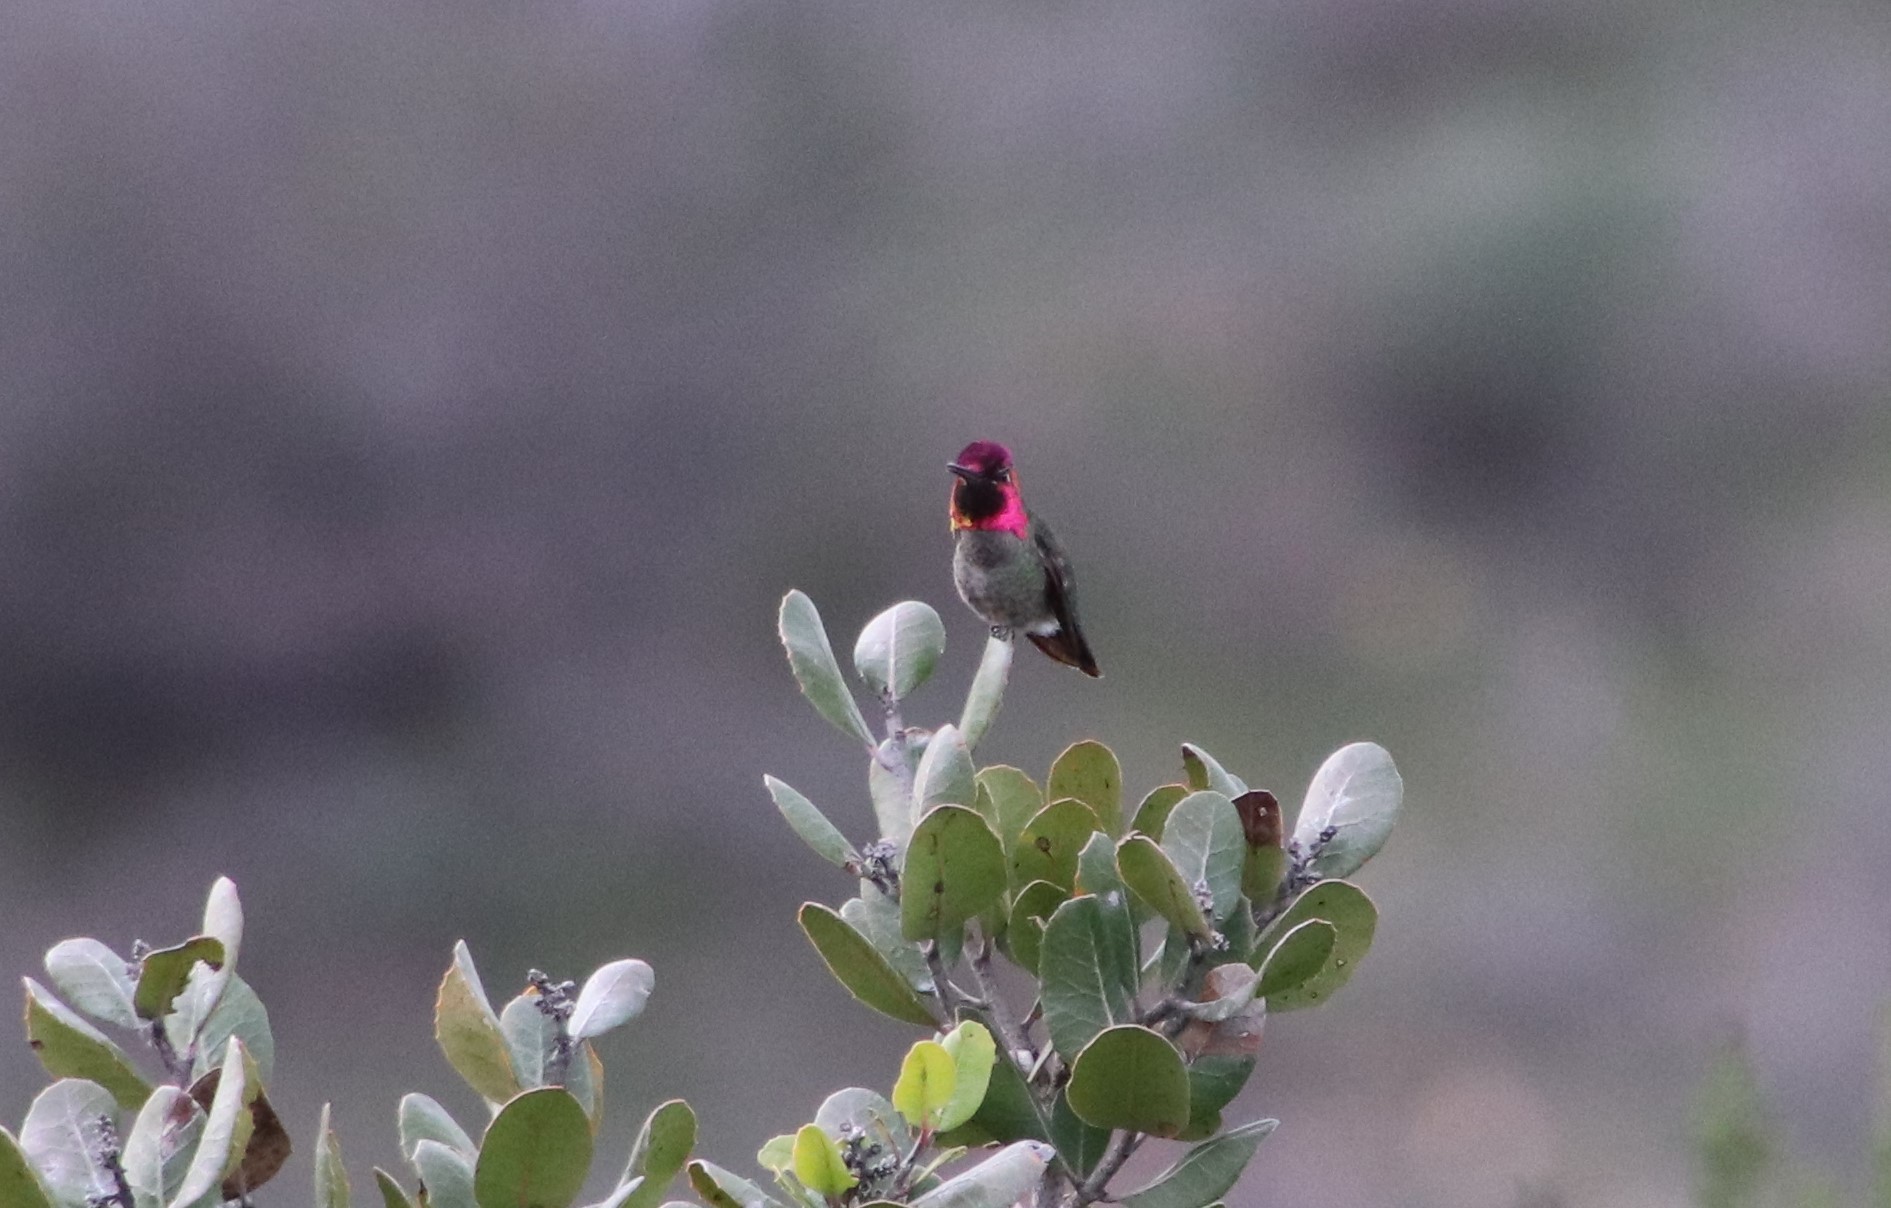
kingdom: Animalia
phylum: Chordata
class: Aves
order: Apodiformes
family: Trochilidae
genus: Calypte
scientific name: Calypte anna
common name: Anna's hummingbird
